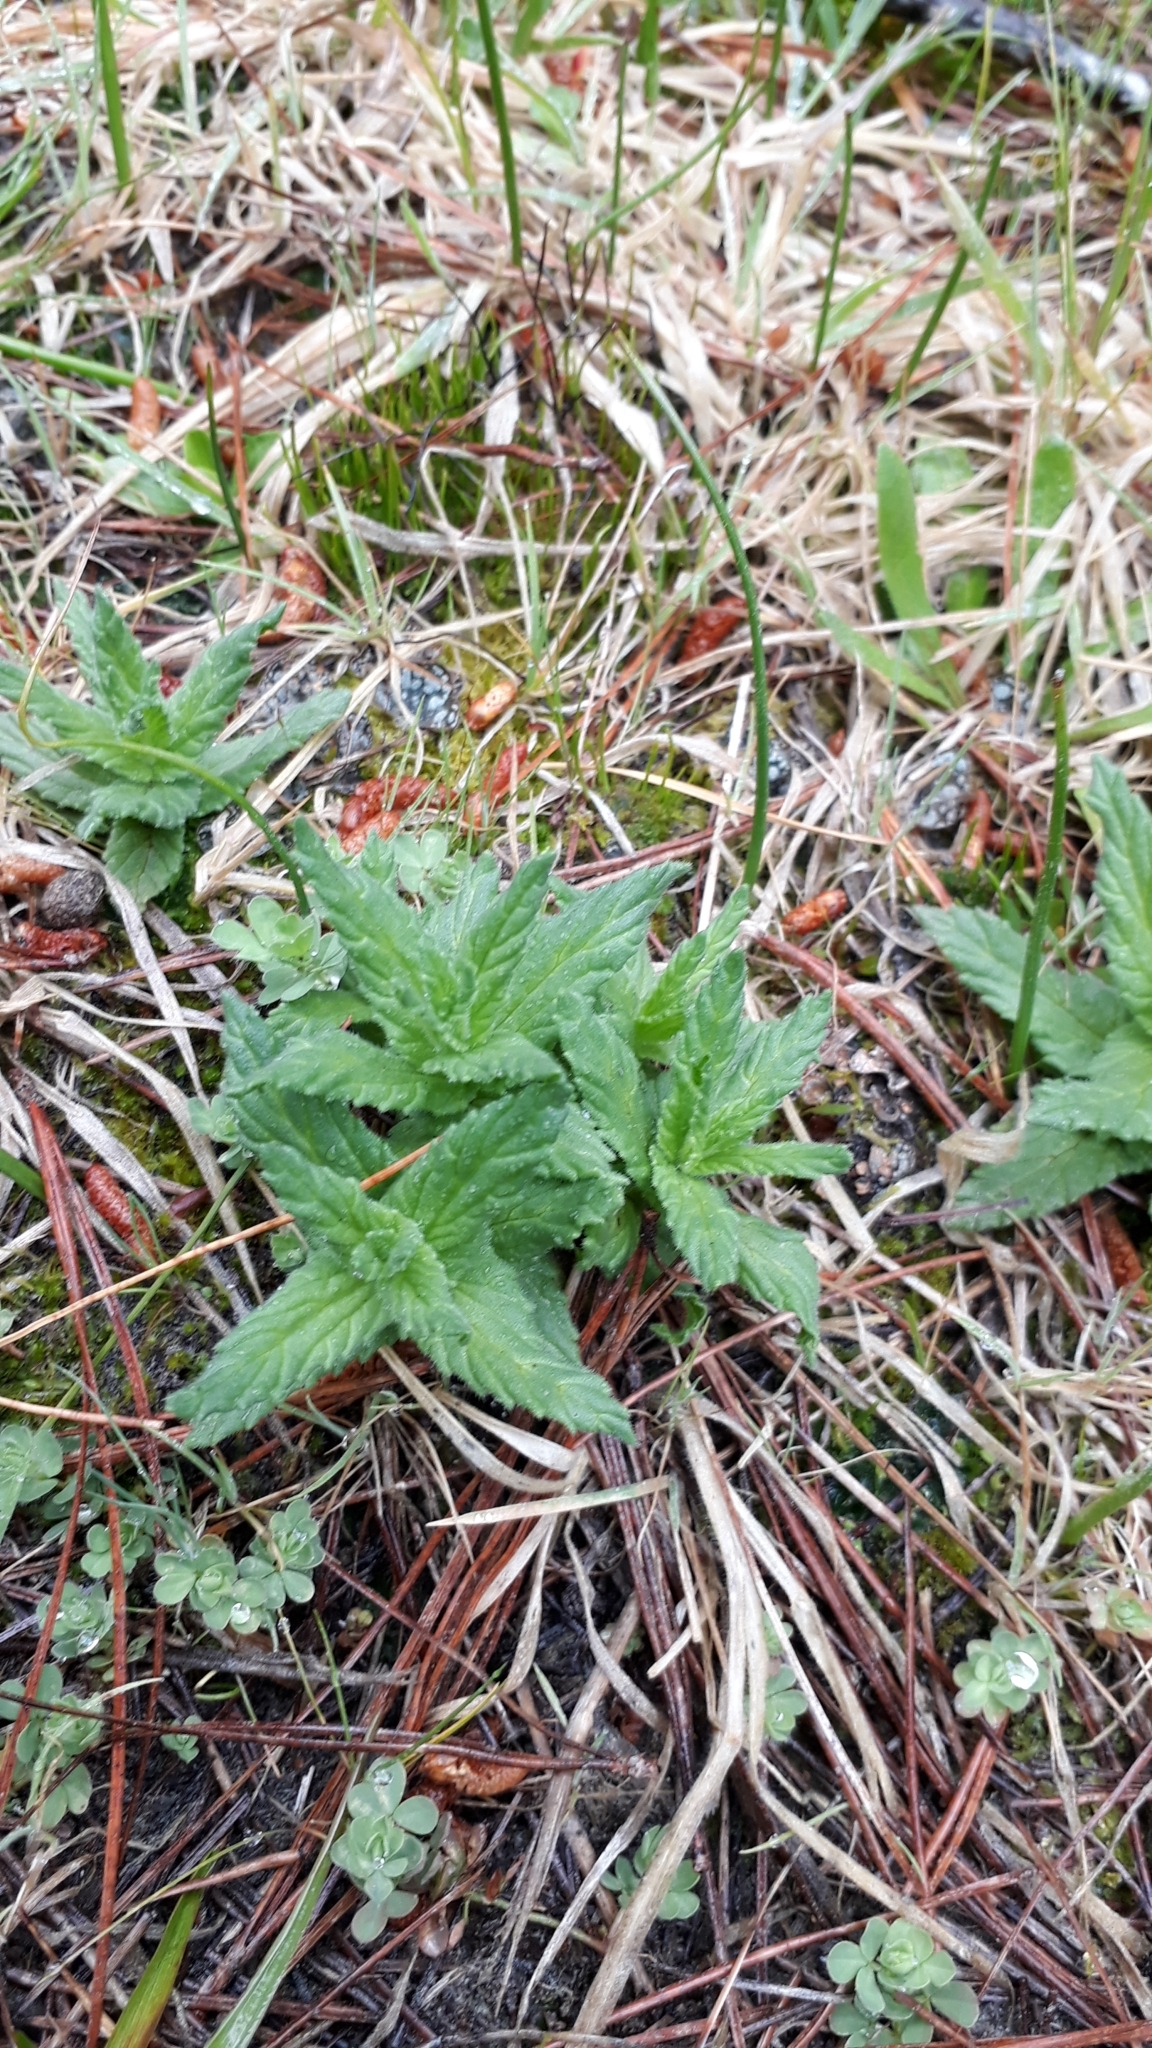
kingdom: Plantae
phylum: Tracheophyta
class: Magnoliopsida
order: Lamiales
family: Orobanchaceae
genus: Bellardia
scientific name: Bellardia viscosa
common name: Sticky parentucellia
